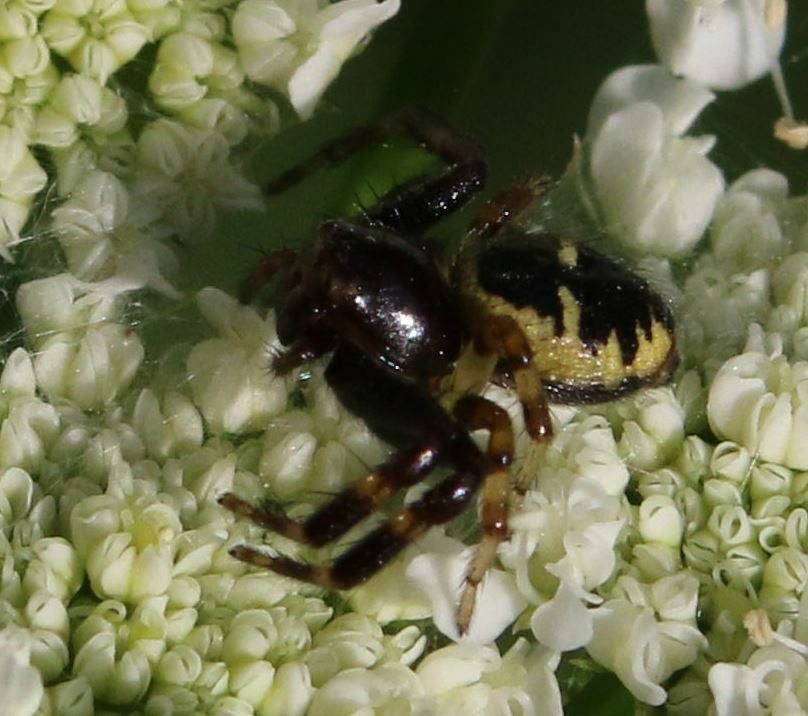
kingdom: Animalia
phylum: Arthropoda
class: Arachnida
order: Araneae
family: Thomisidae
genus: Synema
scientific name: Synema globosum
